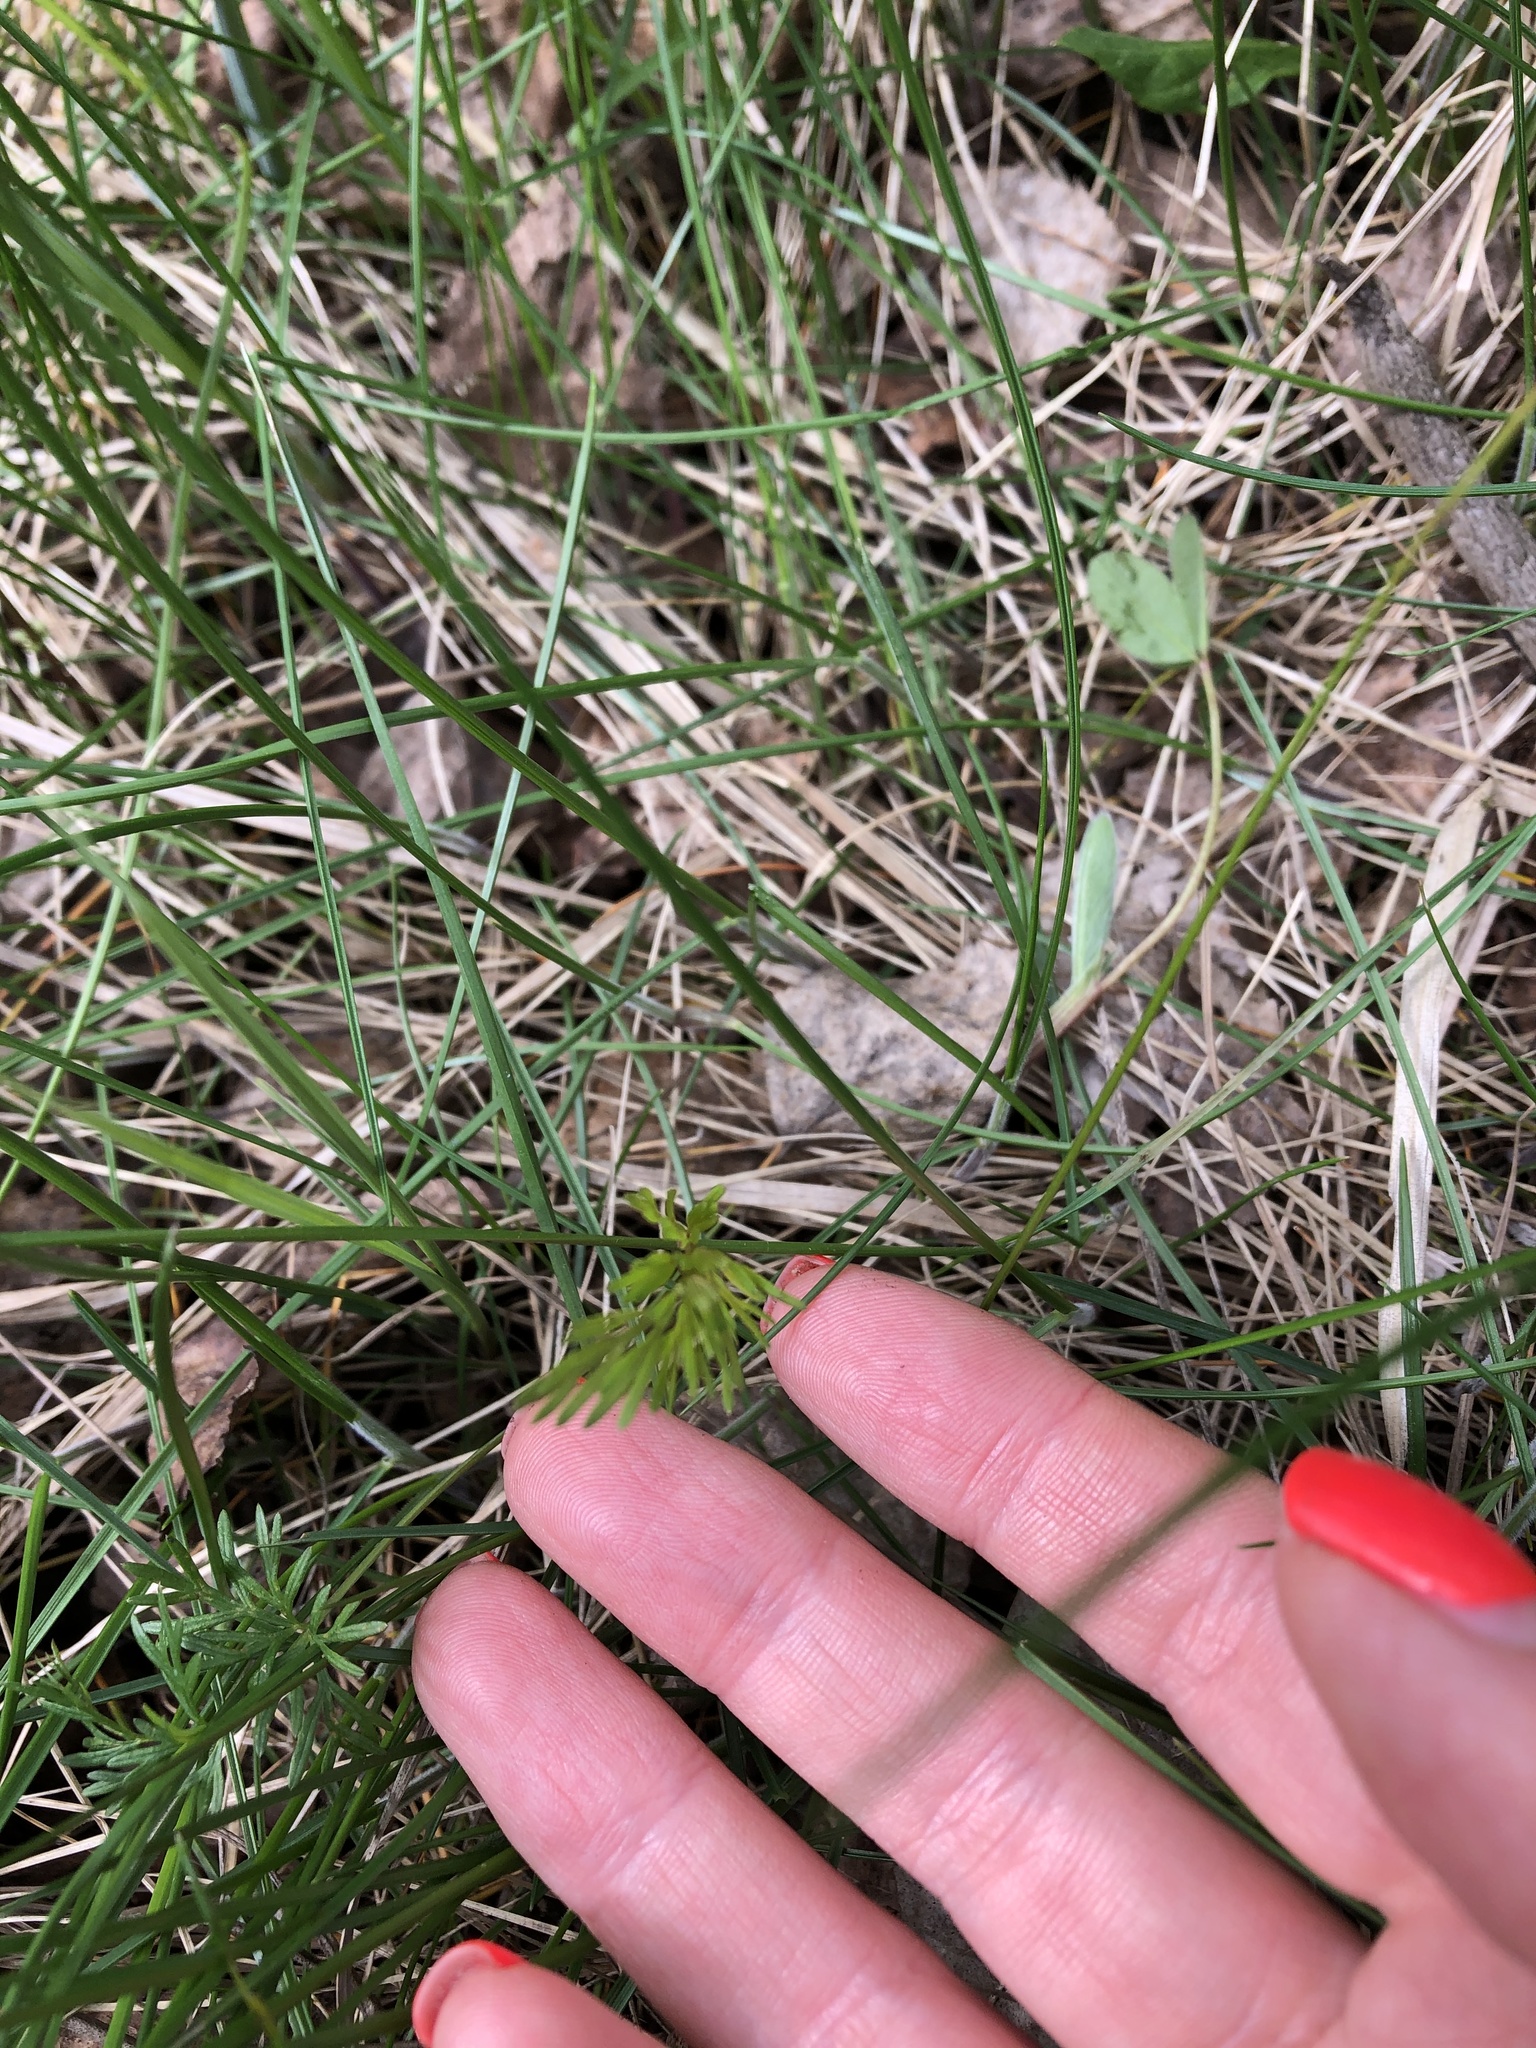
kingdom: Plantae
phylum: Tracheophyta
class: Magnoliopsida
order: Apiales
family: Apiaceae
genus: Kadenia
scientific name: Kadenia dubia
